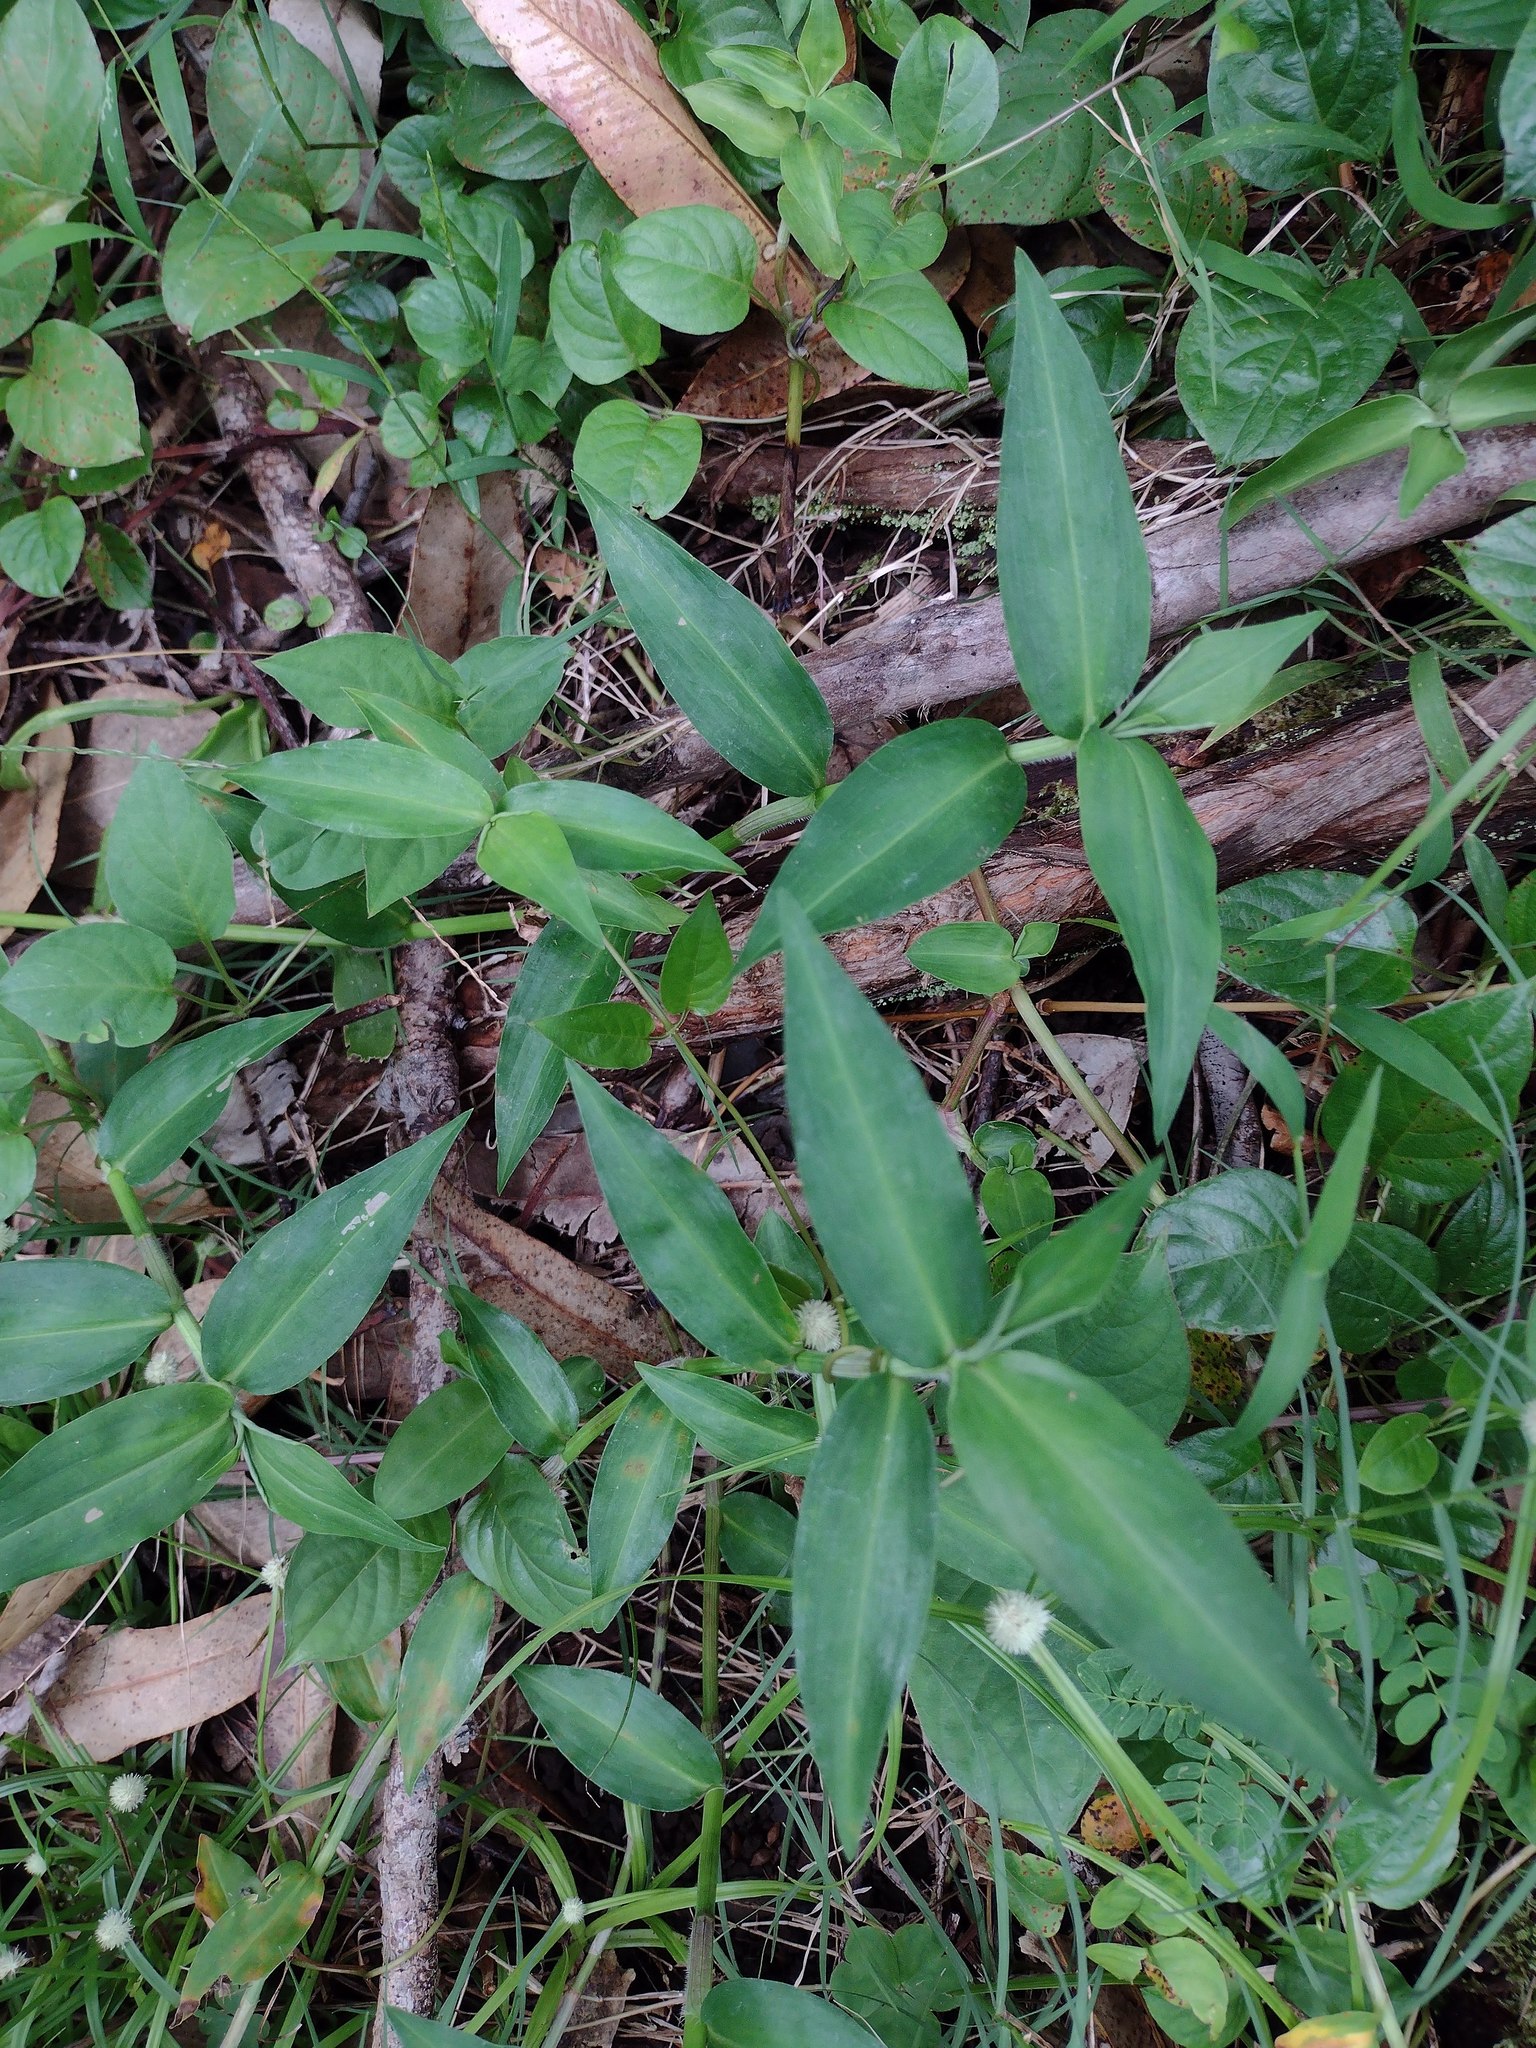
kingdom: Plantae
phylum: Tracheophyta
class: Liliopsida
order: Commelinales
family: Commelinaceae
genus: Commelina
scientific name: Commelina diffusa
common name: Climbing dayflower
